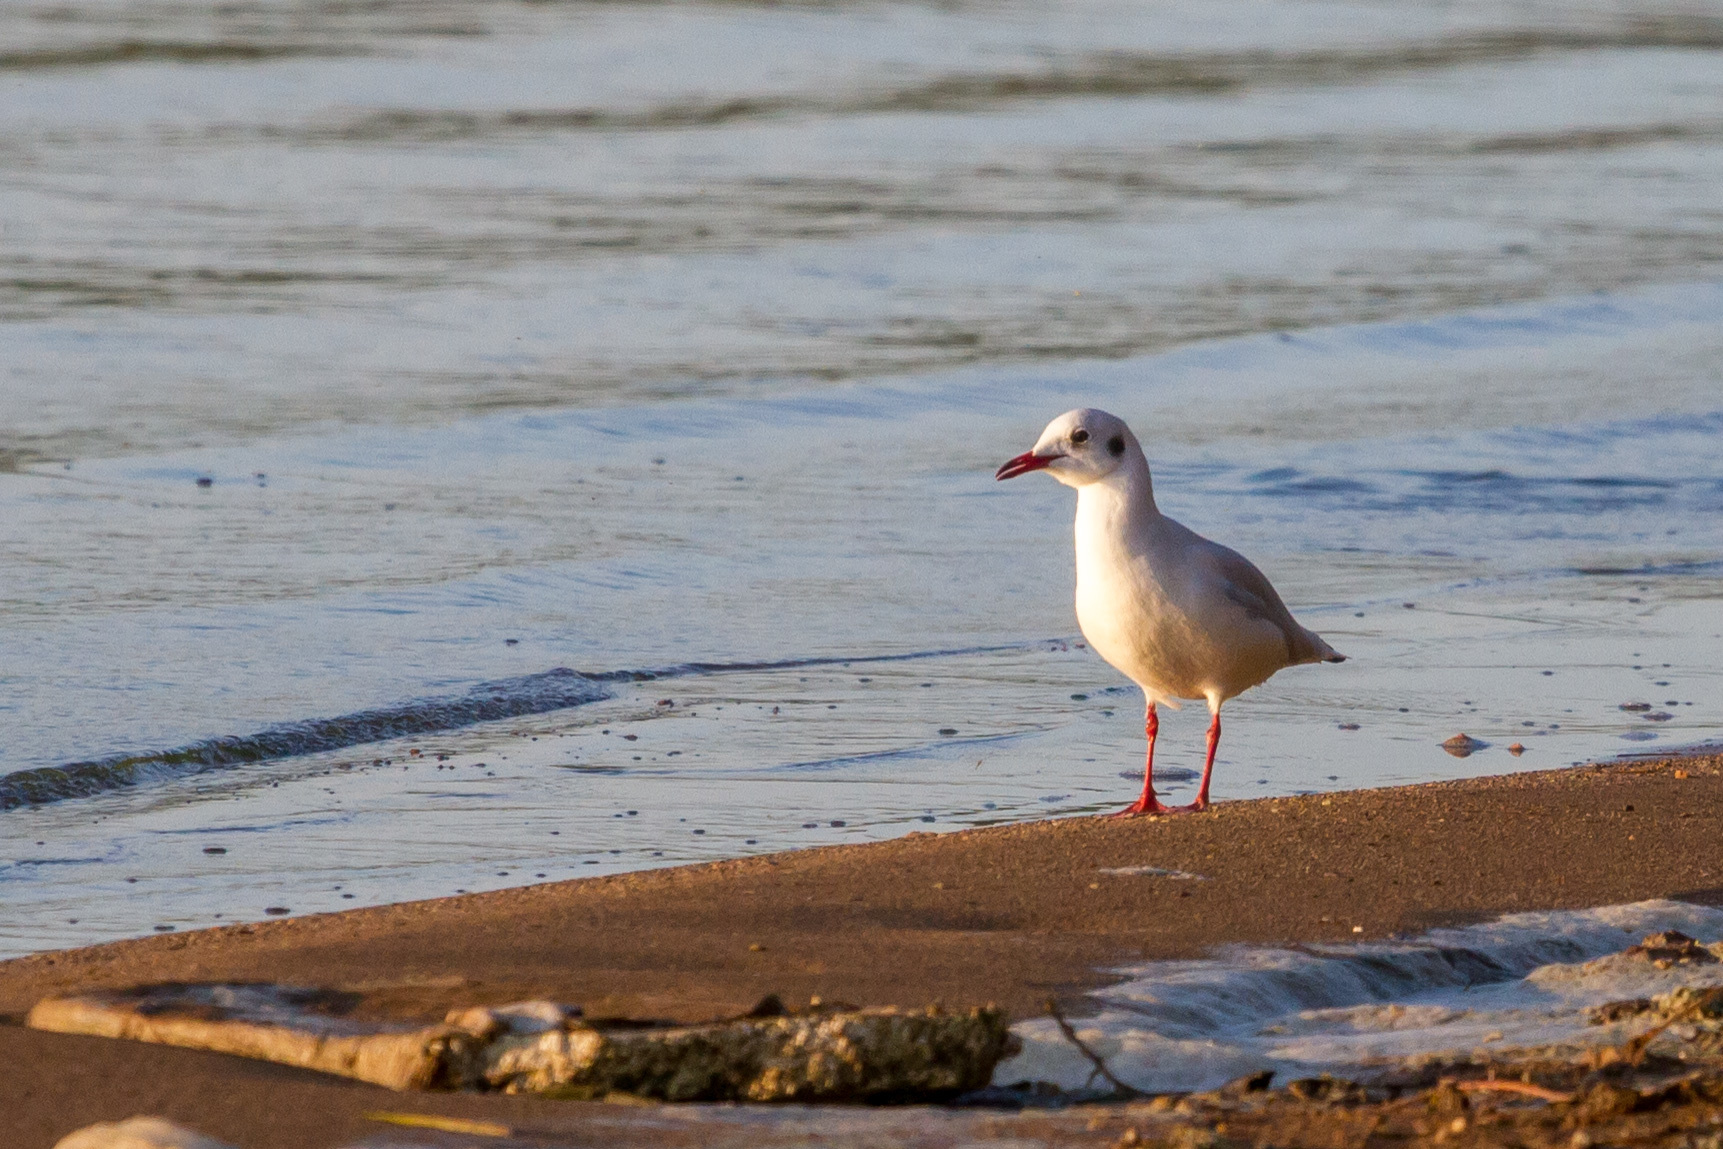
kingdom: Animalia
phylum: Chordata
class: Aves
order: Charadriiformes
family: Laridae
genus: Chroicocephalus
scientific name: Chroicocephalus ridibundus
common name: Black-headed gull
